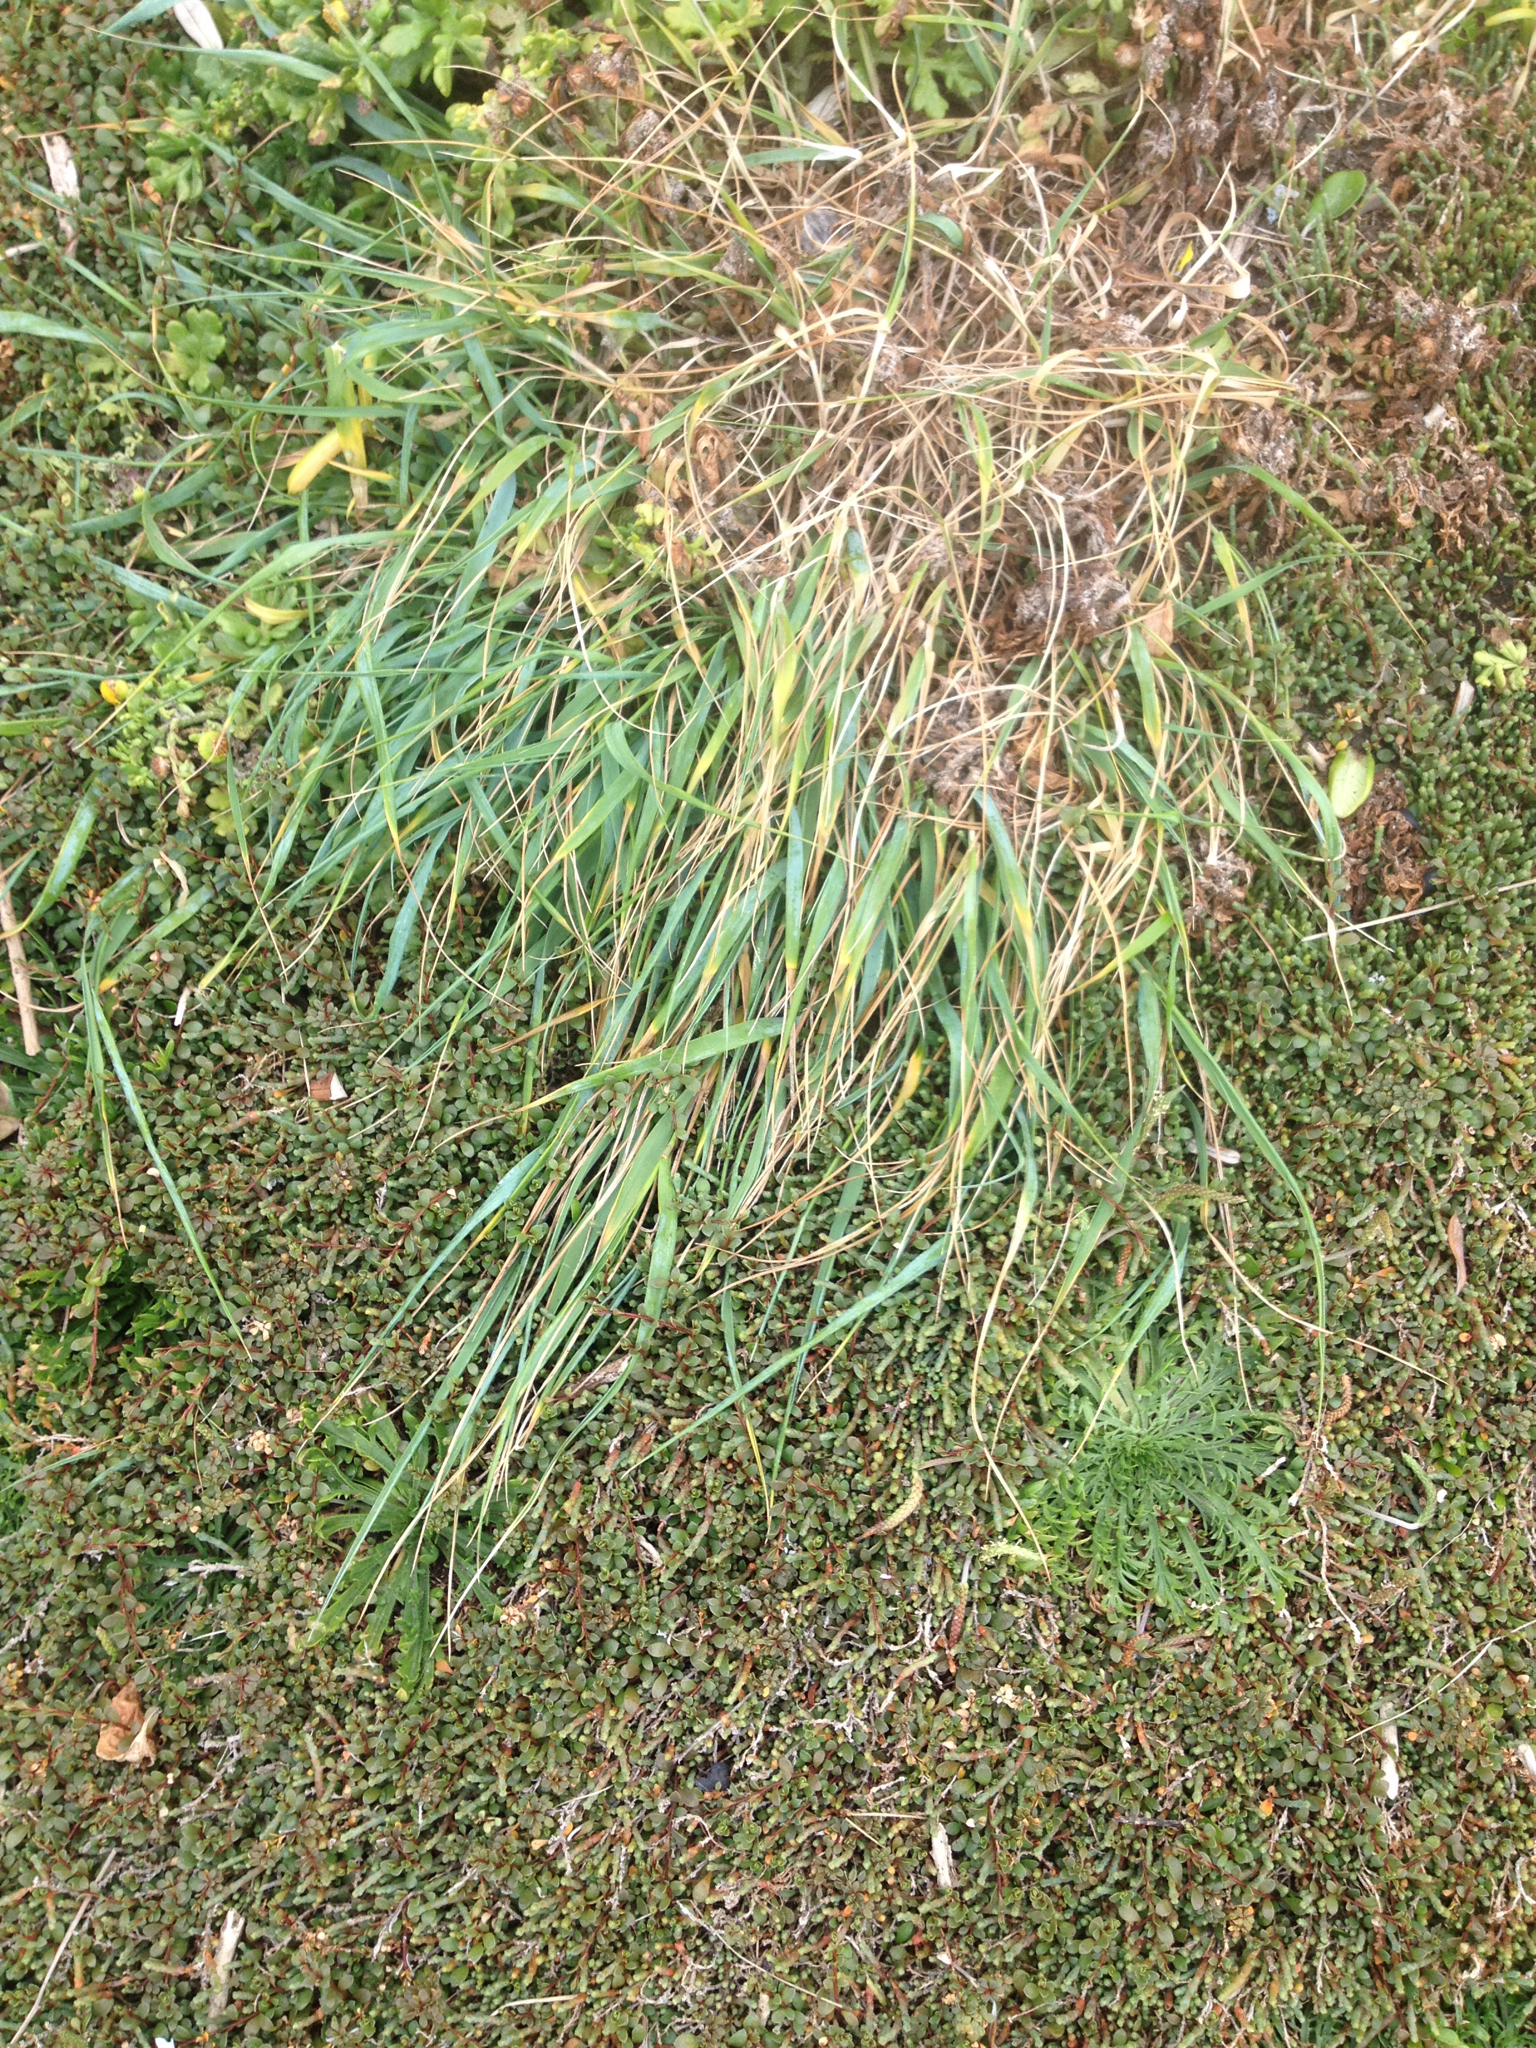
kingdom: Plantae
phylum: Tracheophyta
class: Liliopsida
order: Poales
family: Poaceae
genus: Anthosachne
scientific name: Anthosachne solandri
